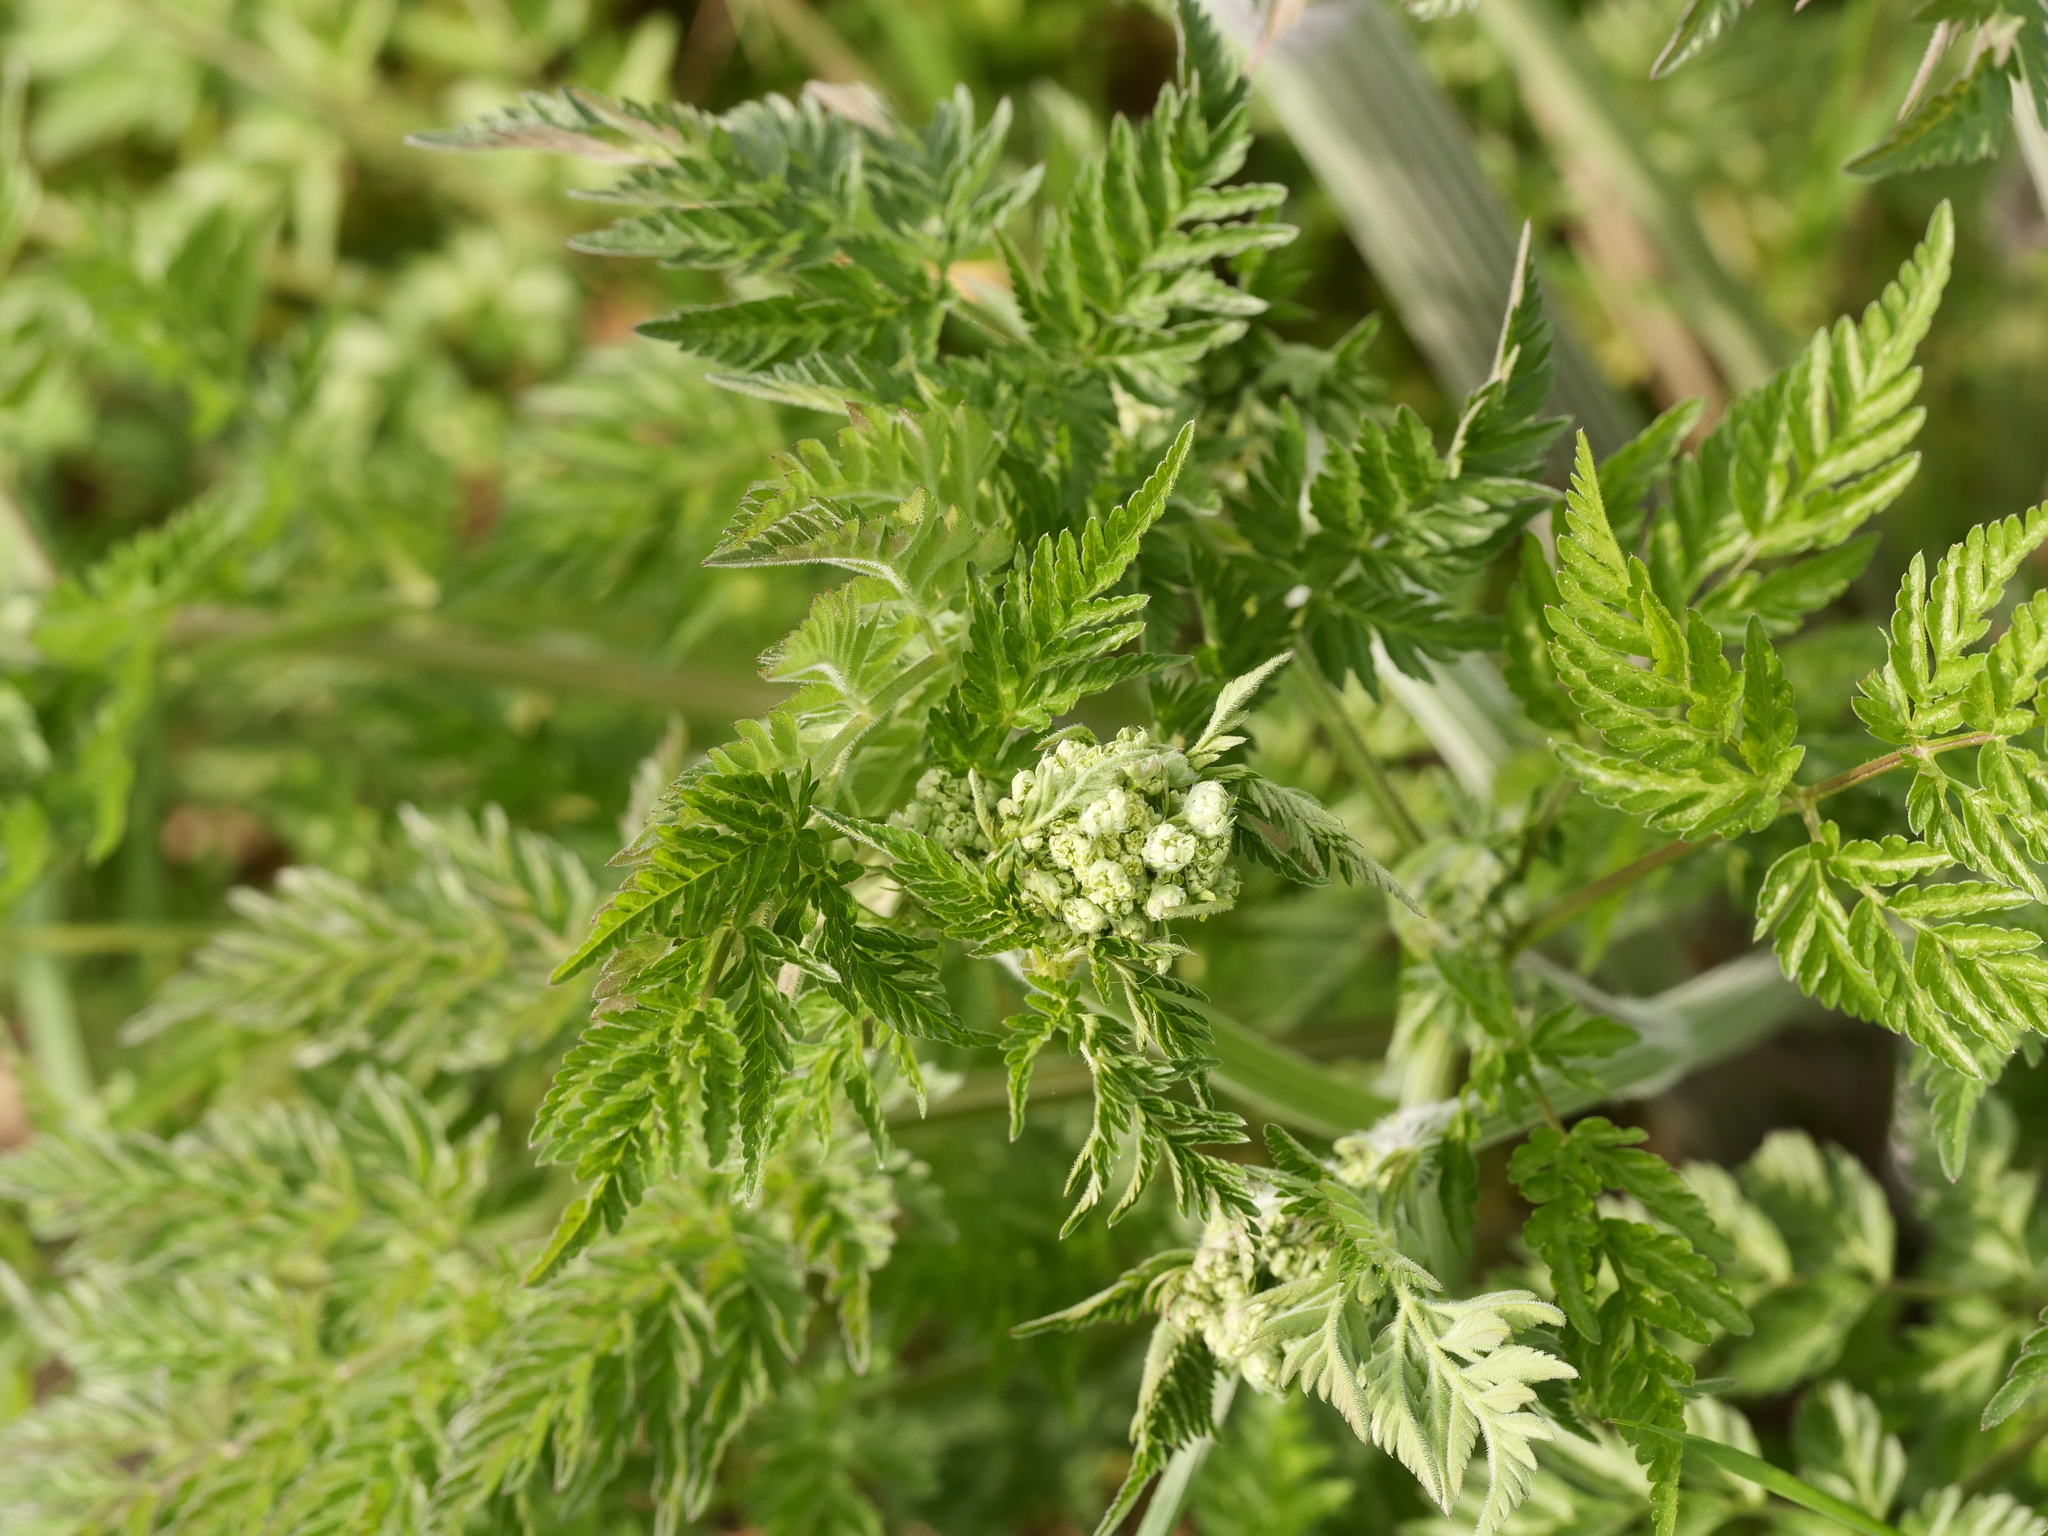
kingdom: Plantae
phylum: Tracheophyta
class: Magnoliopsida
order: Apiales
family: Apiaceae
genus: Anthriscus
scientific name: Anthriscus sylvestris
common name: Cow parsley
